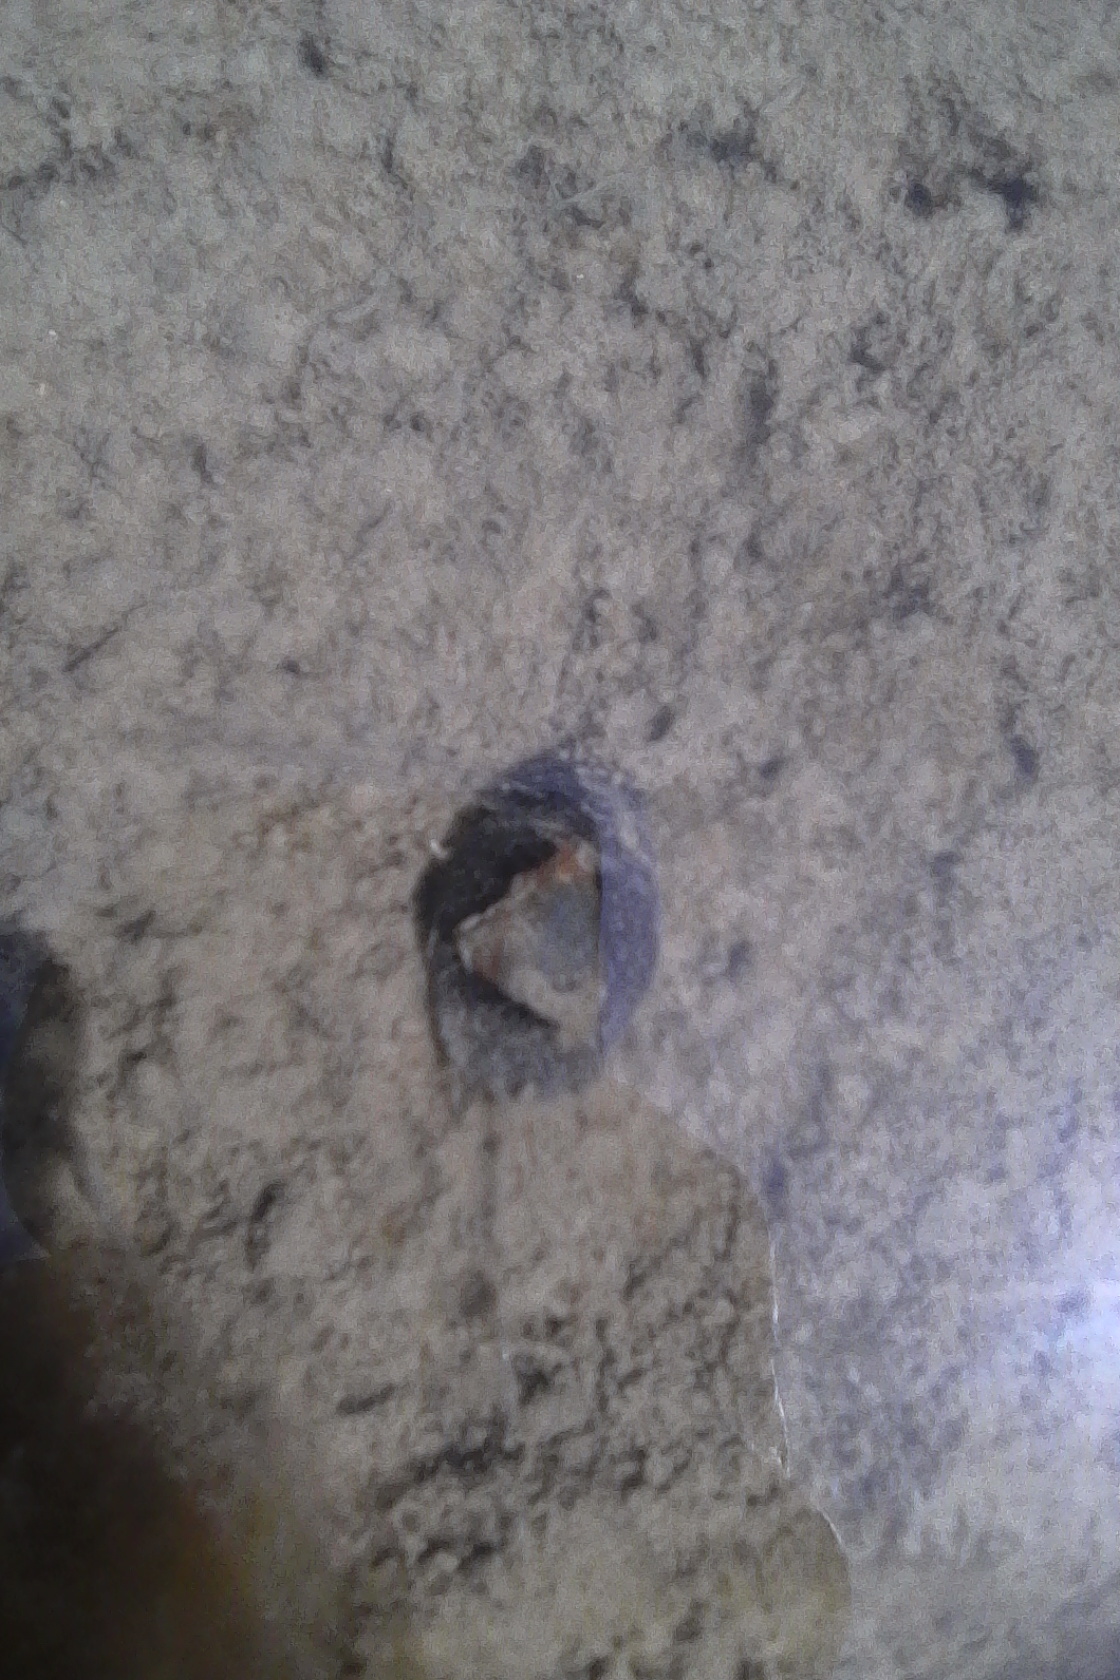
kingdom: Animalia
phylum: Mollusca
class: Gastropoda
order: Cephalaspidea
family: Haminoeidae
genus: Papawera
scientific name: Papawera zelandiae
